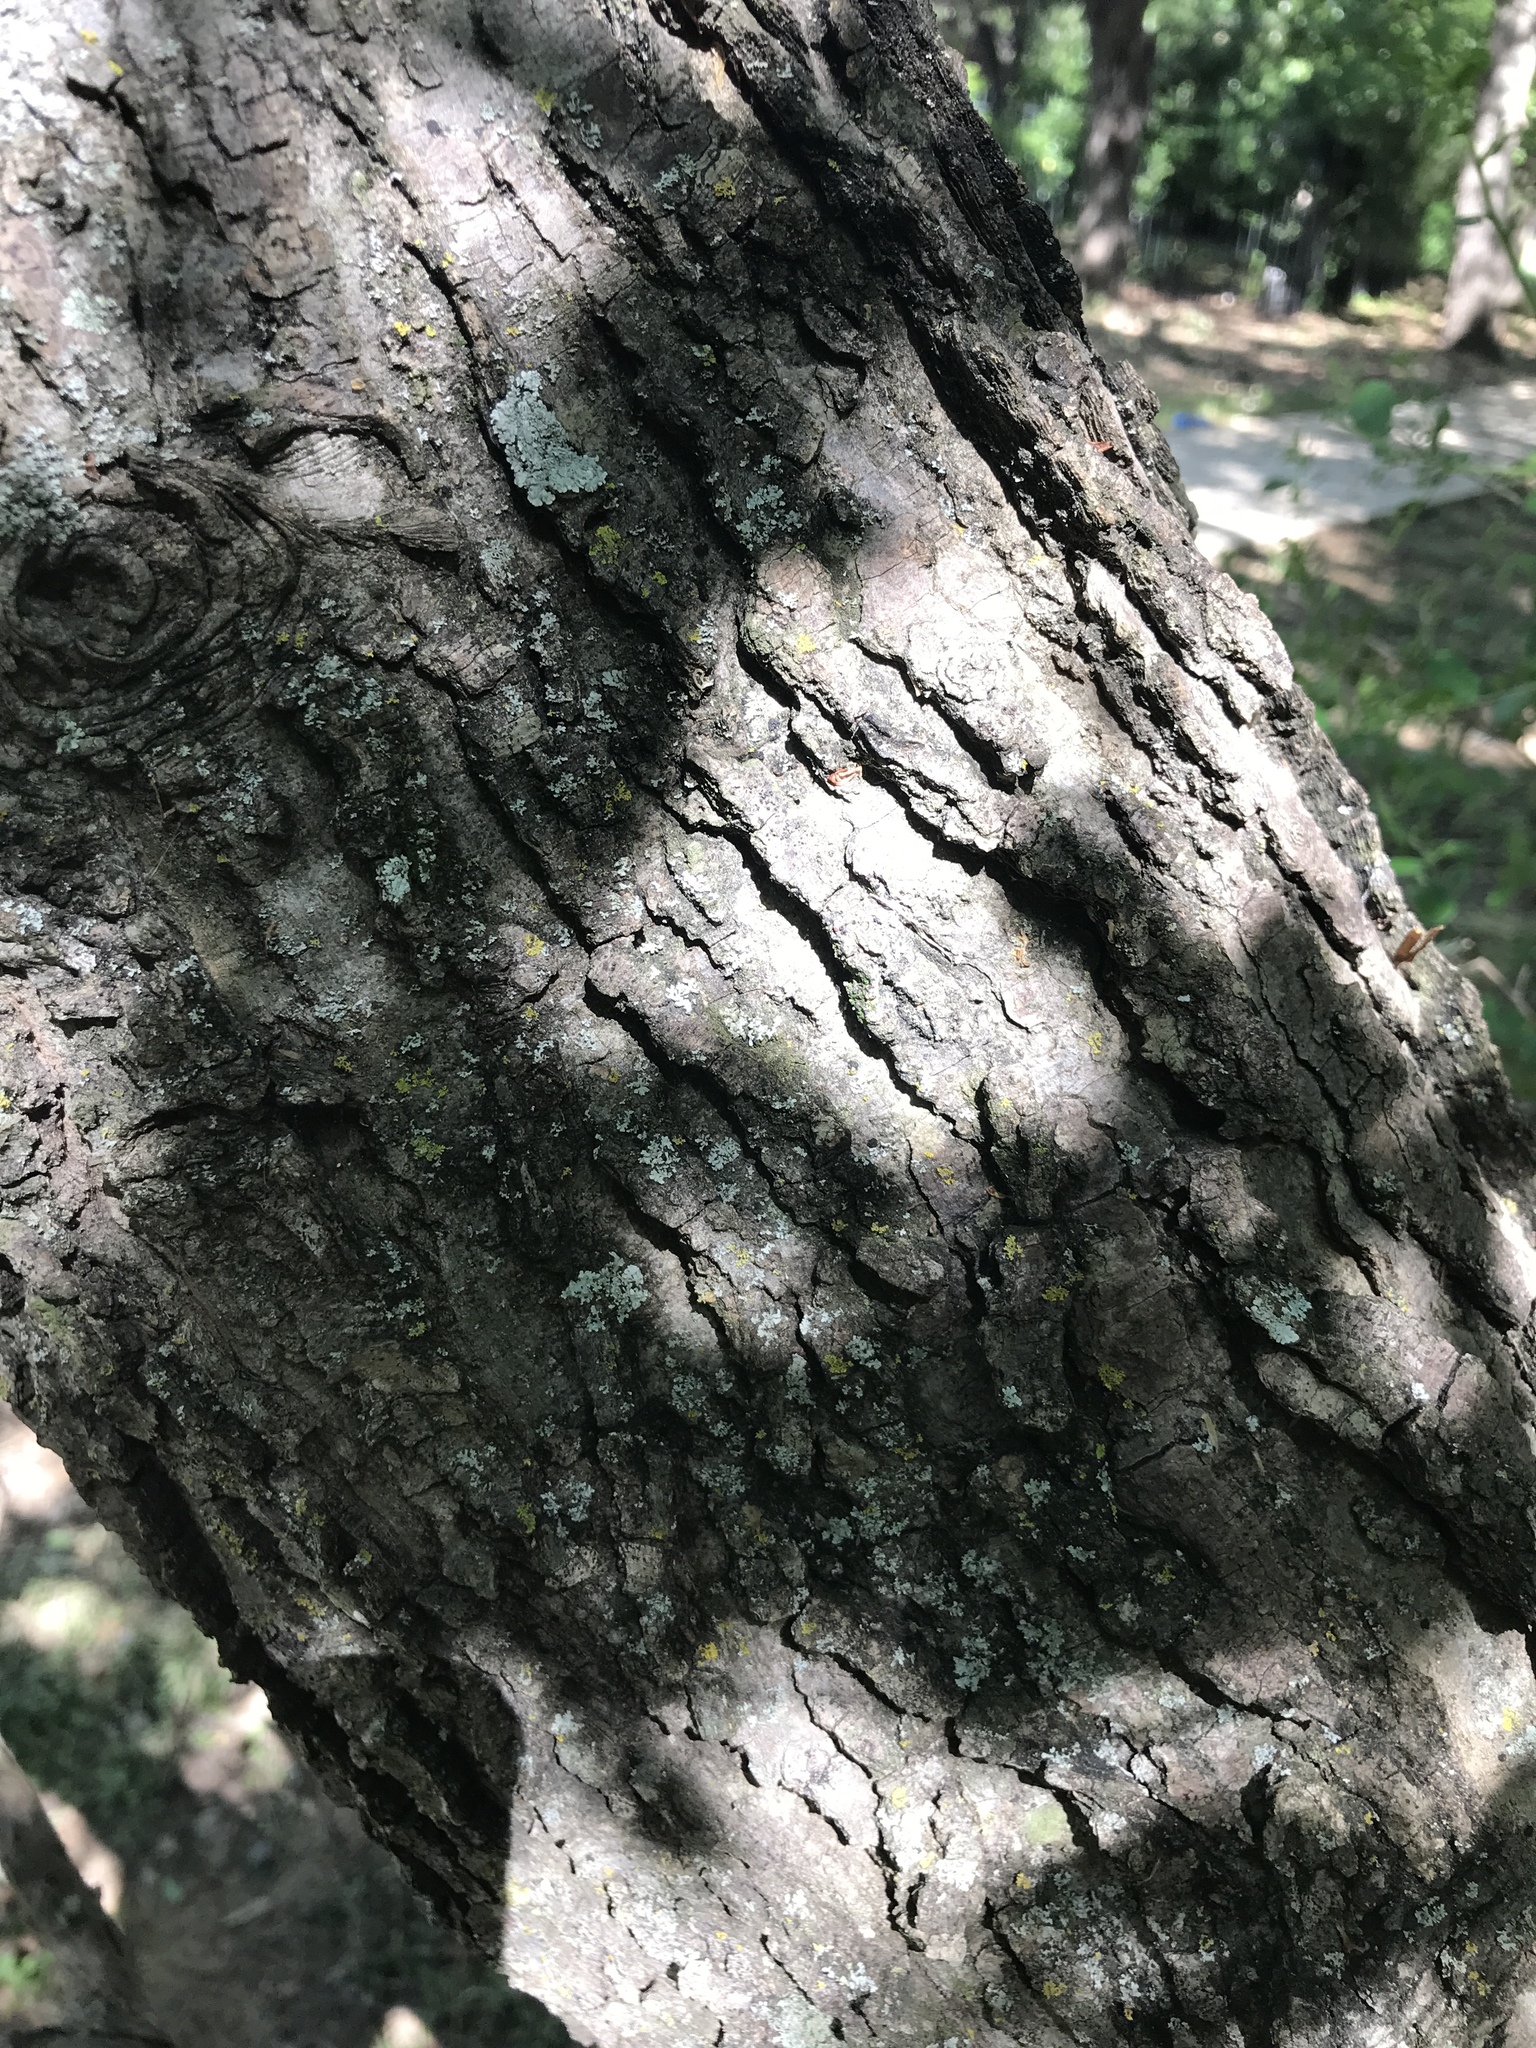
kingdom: Plantae
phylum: Tracheophyta
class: Magnoliopsida
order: Rosales
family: Cannabaceae
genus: Celtis
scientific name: Celtis reticulata
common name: Netleaf hackberry
